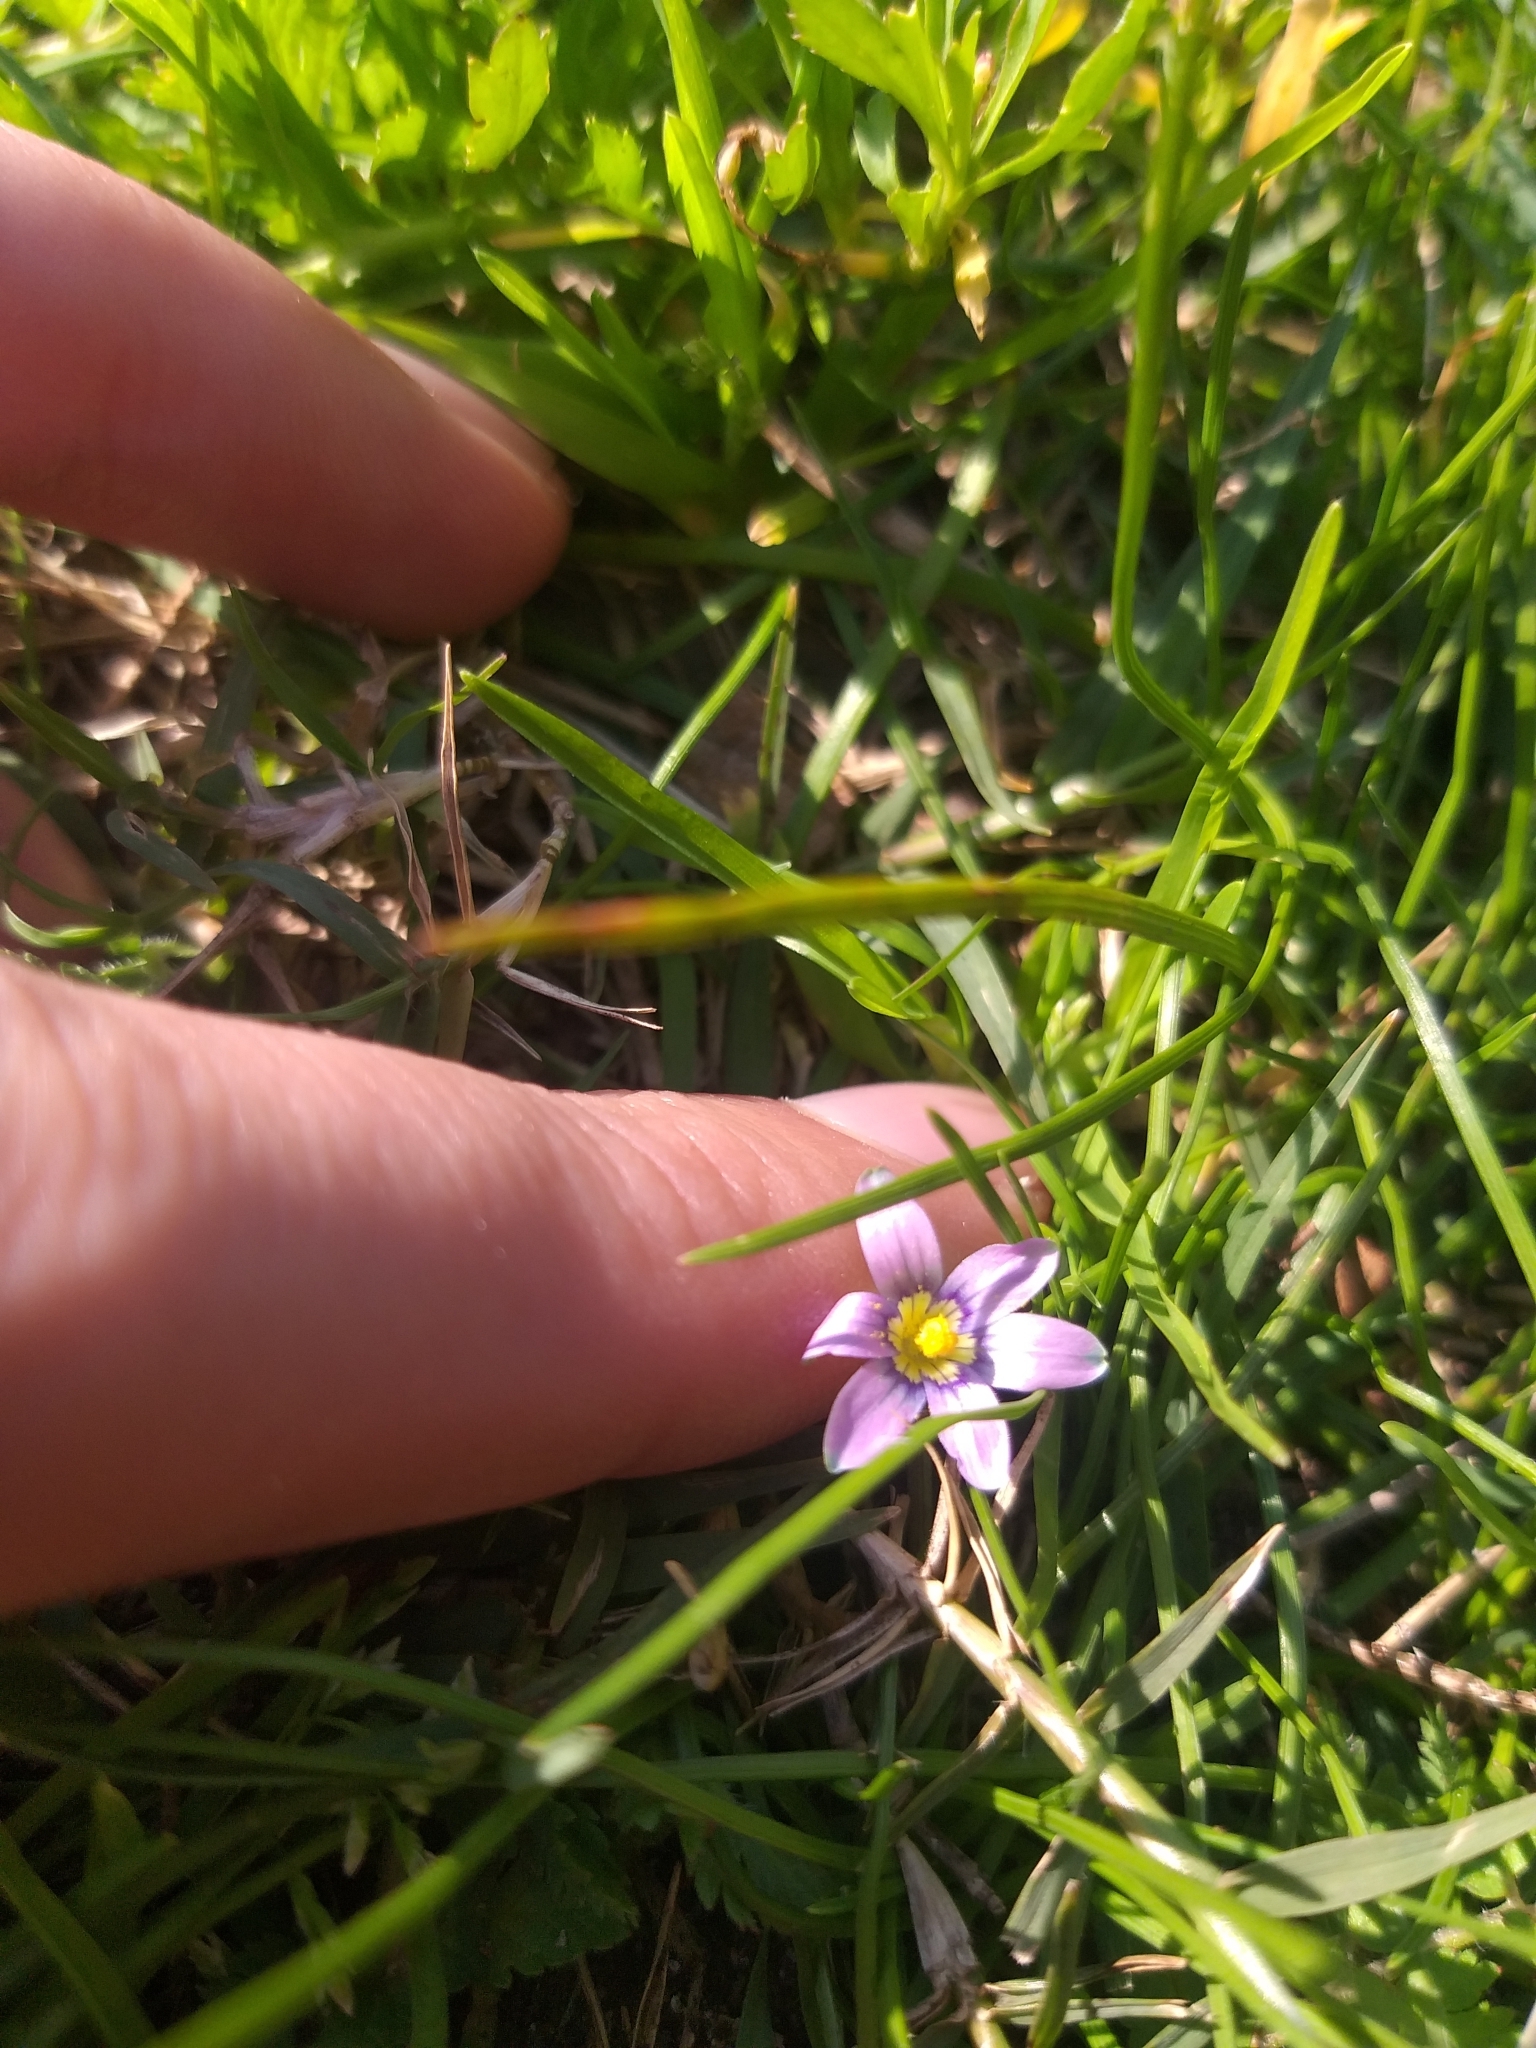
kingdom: Plantae
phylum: Tracheophyta
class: Liliopsida
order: Asparagales
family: Iridaceae
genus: Romulea
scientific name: Romulea minutiflora
